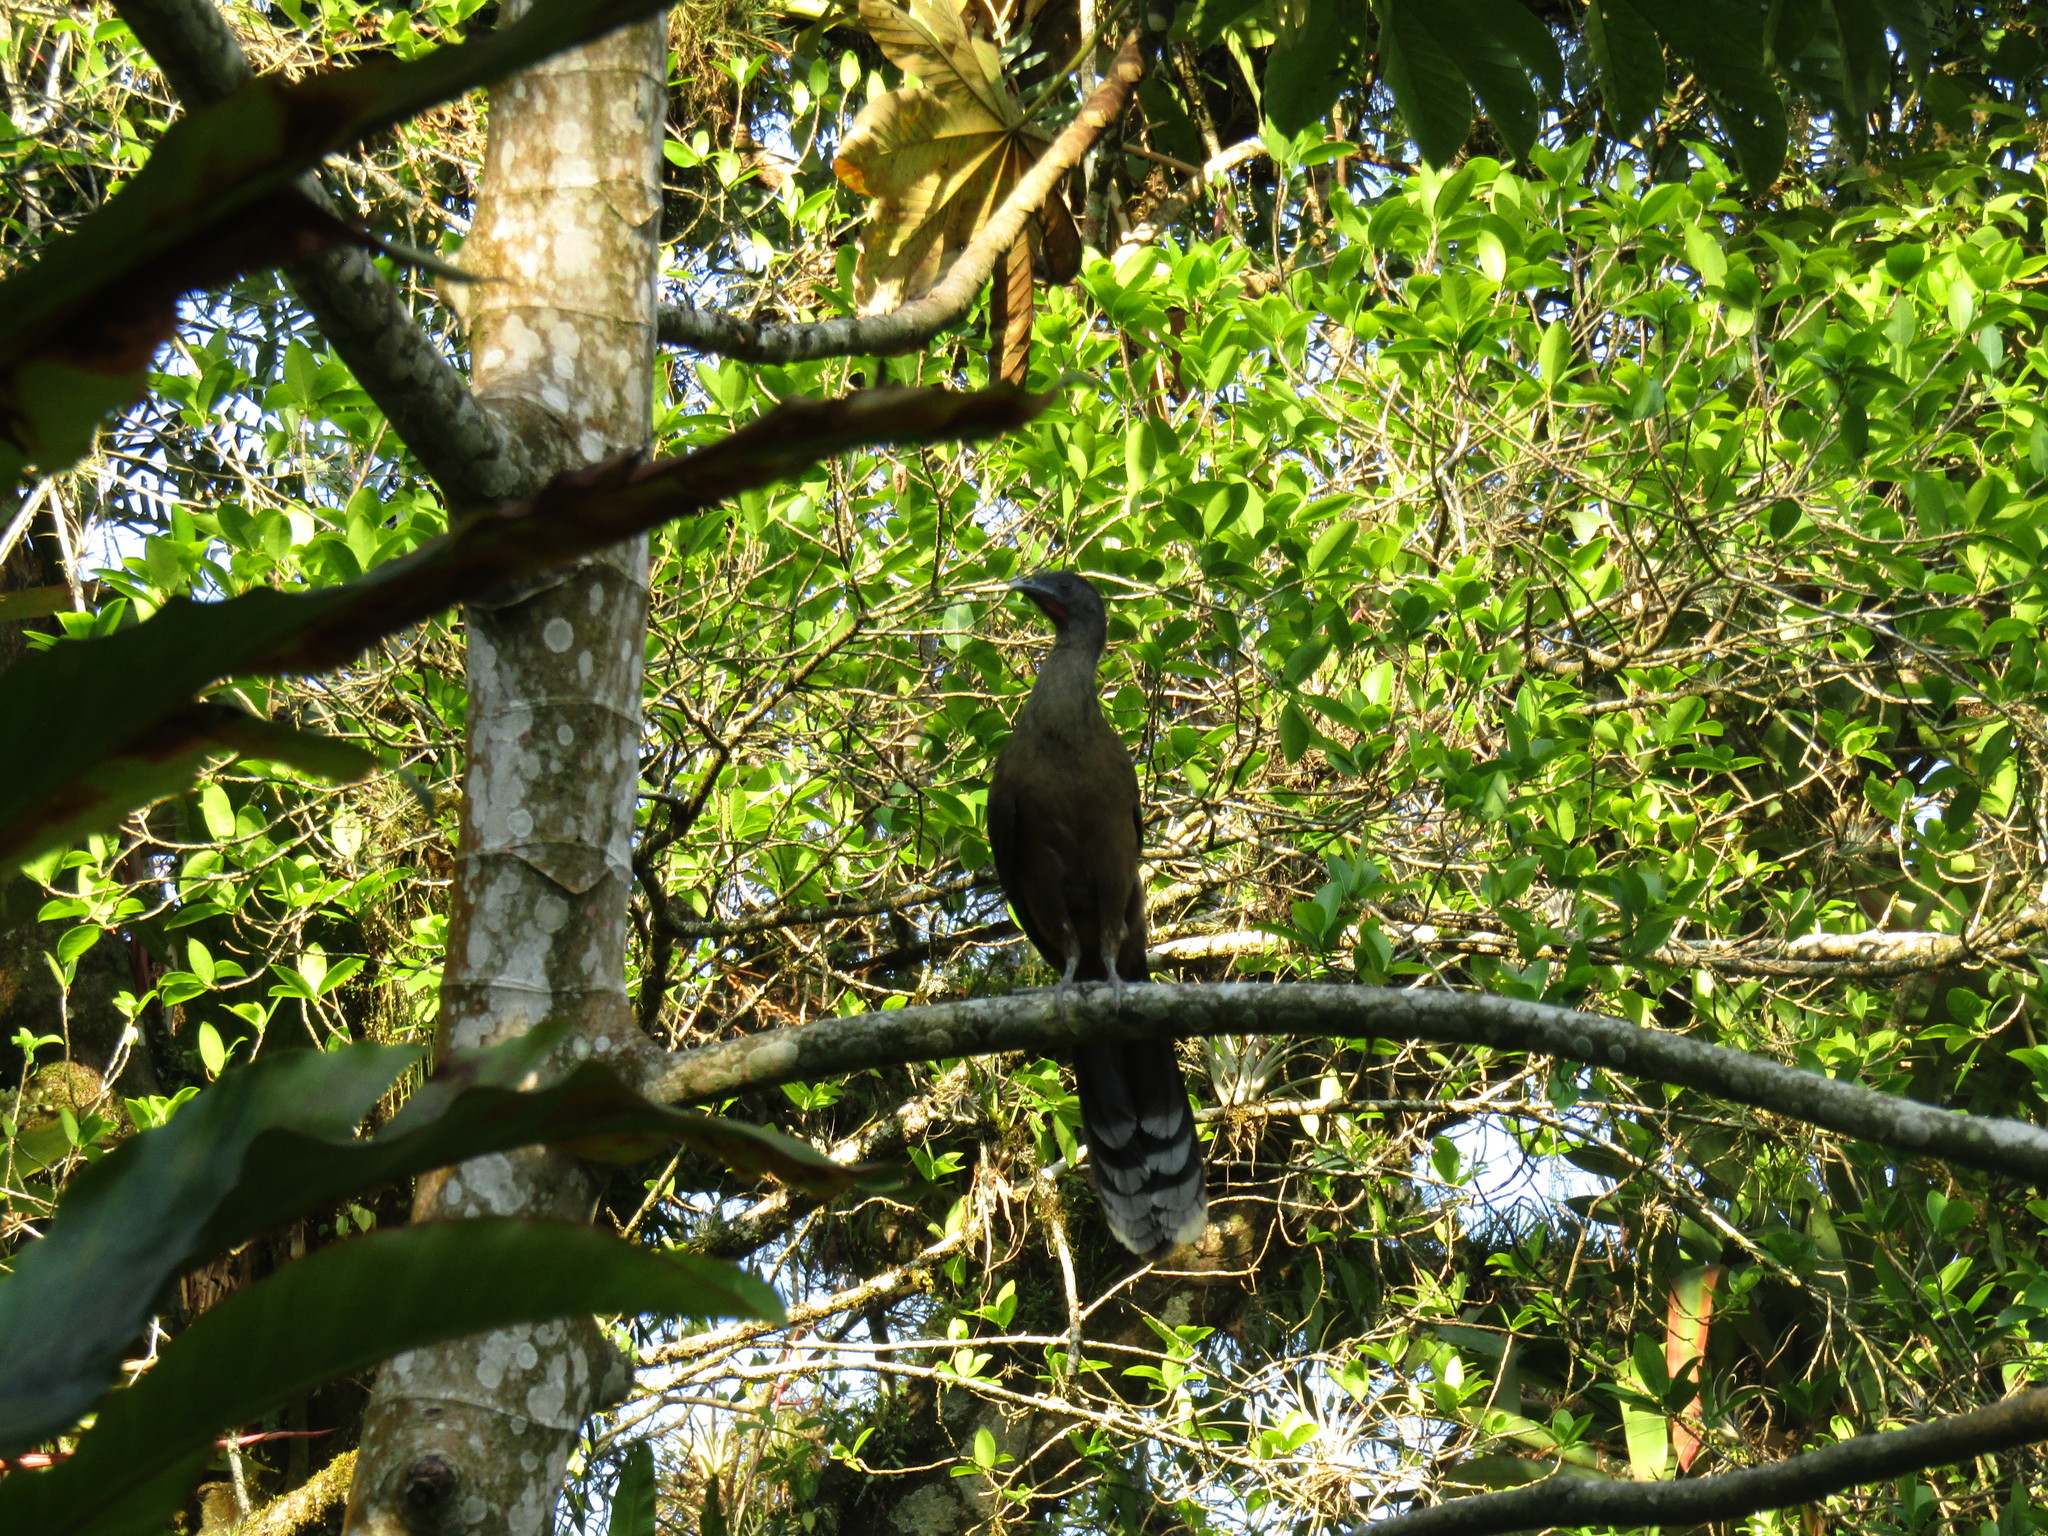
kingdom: Animalia
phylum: Chordata
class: Aves
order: Galliformes
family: Cracidae
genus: Ortalis
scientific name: Ortalis vetula
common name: Plain chachalaca
